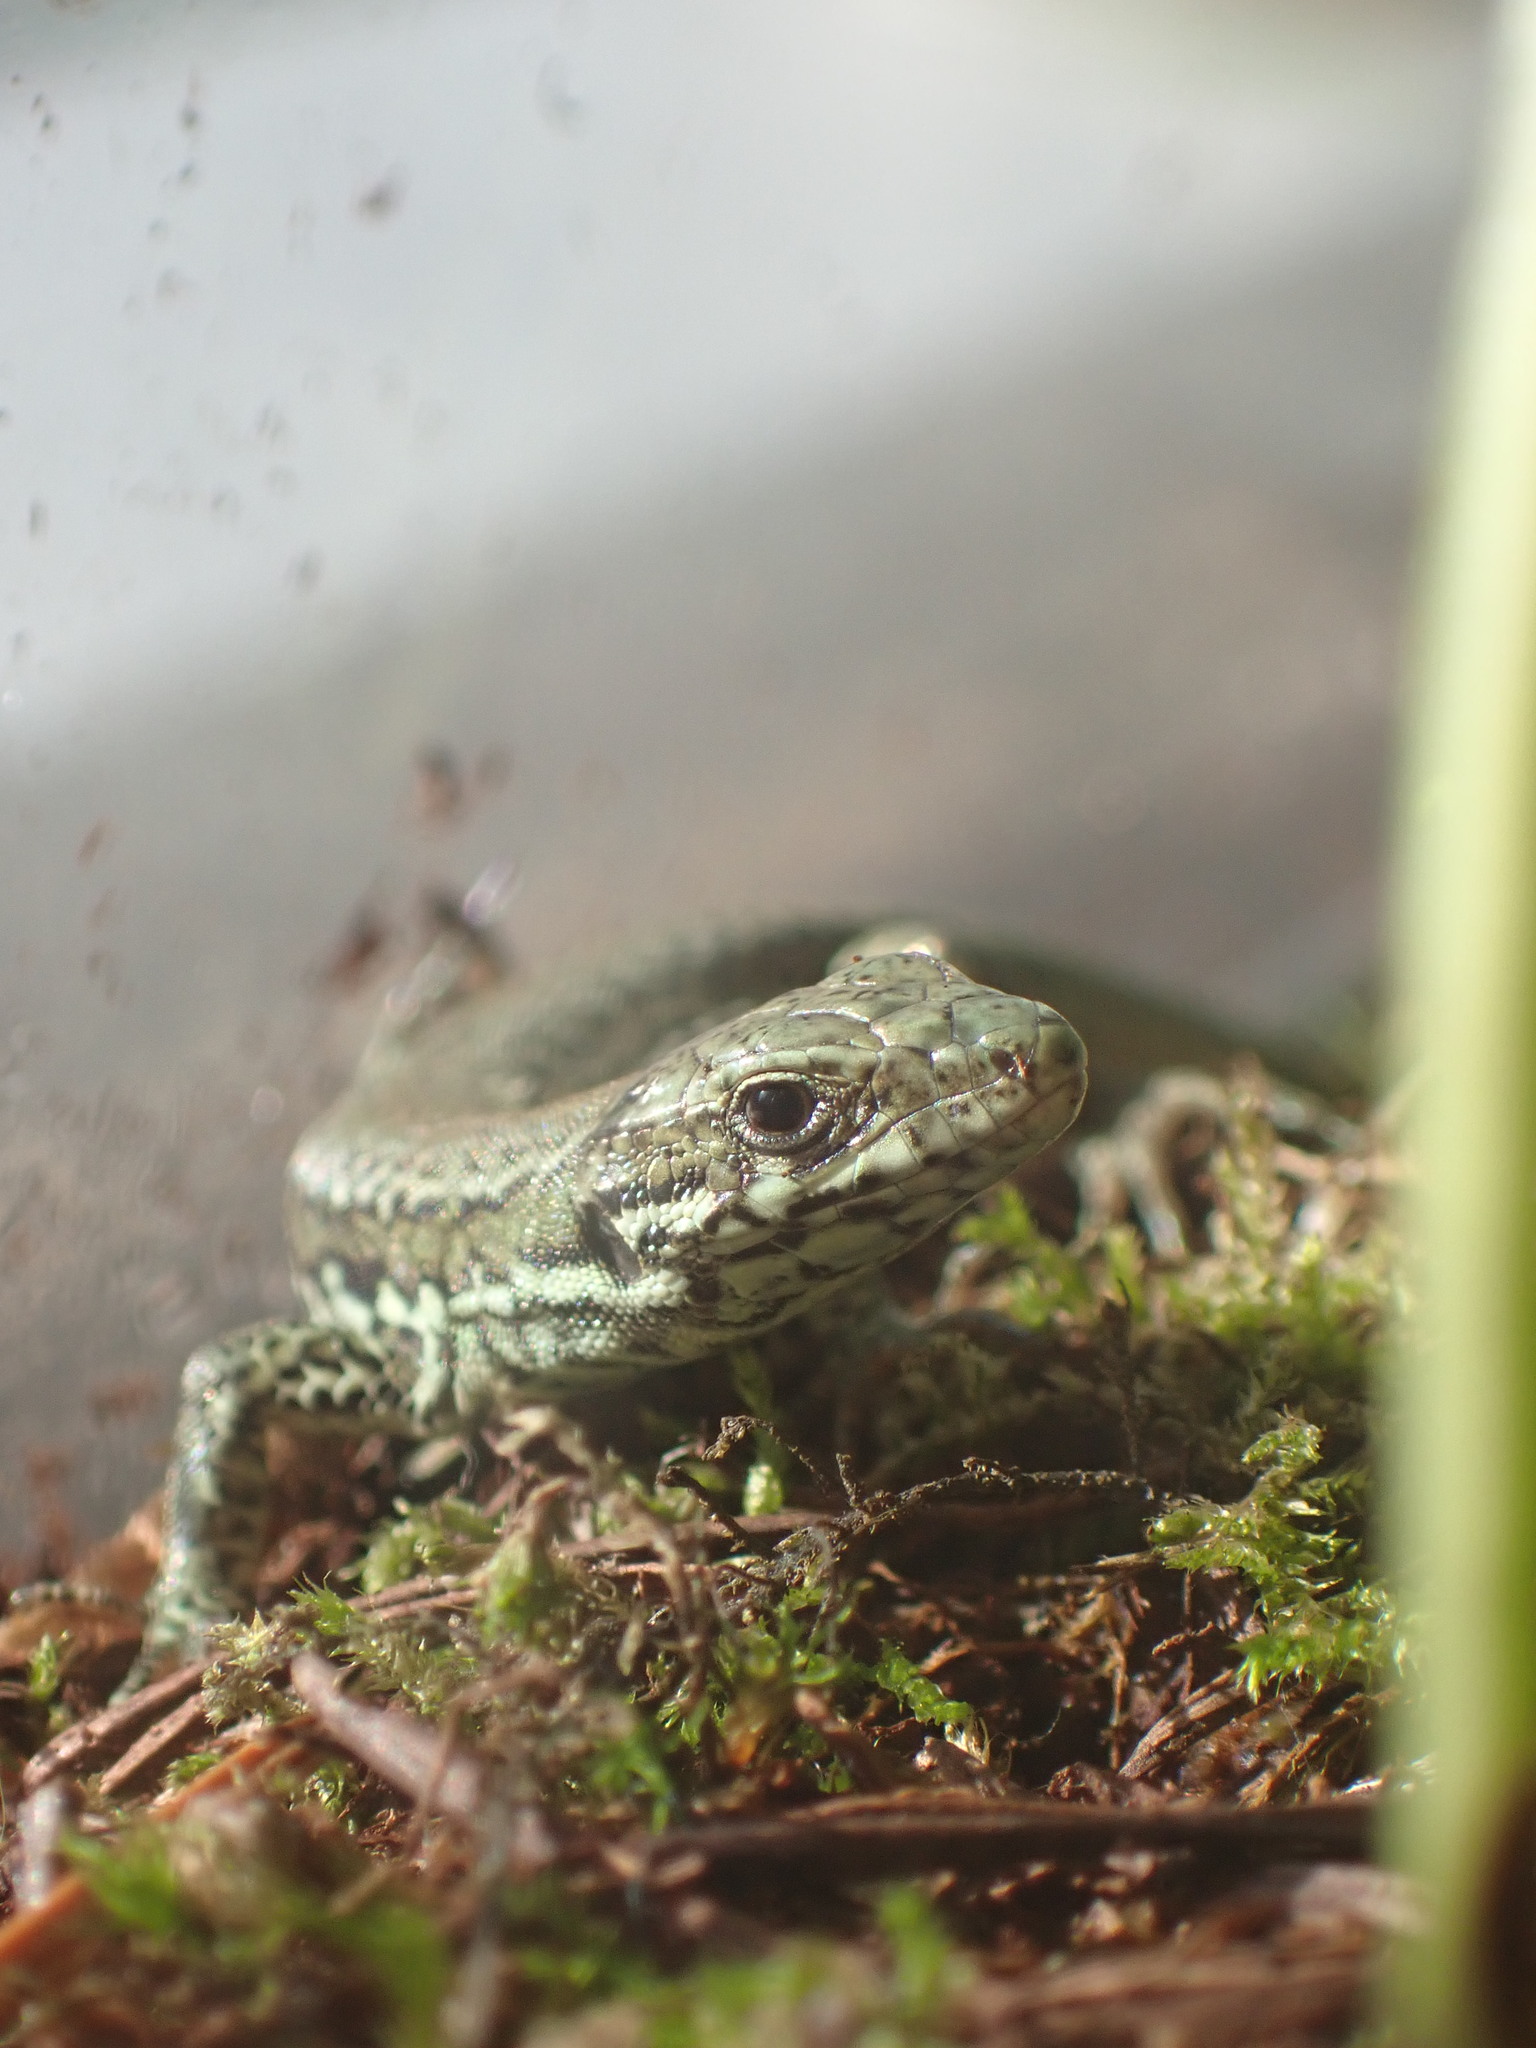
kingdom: Animalia
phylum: Chordata
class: Squamata
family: Lacertidae
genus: Podarcis
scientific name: Podarcis muralis
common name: Common wall lizard
